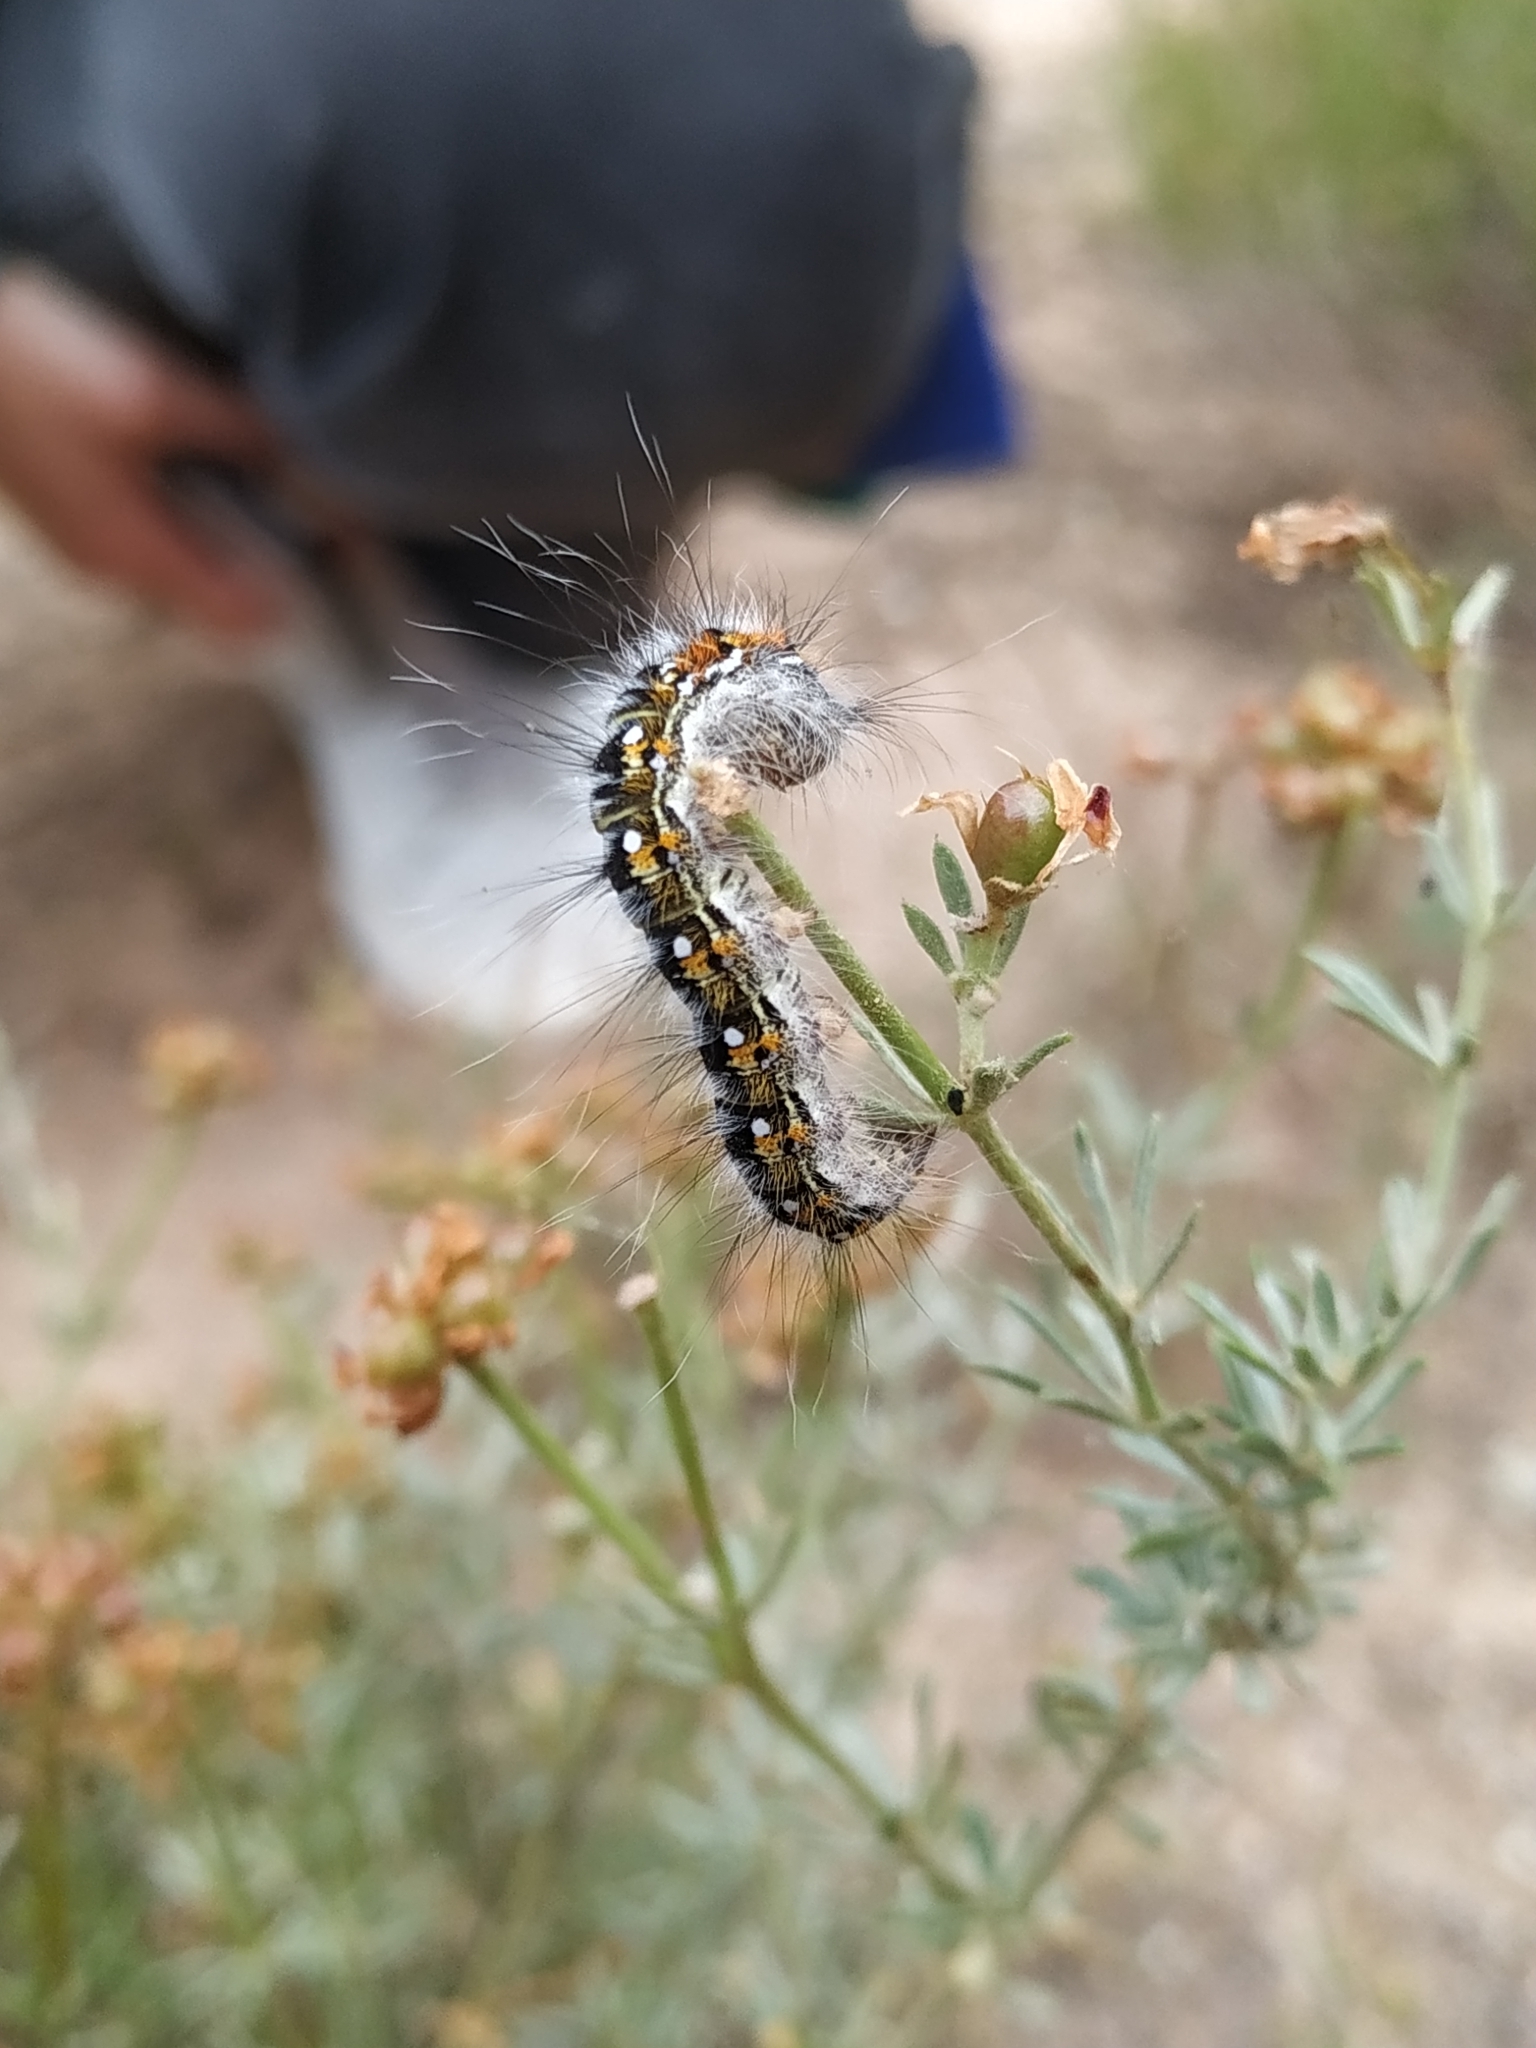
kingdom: Animalia
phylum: Arthropoda
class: Insecta
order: Lepidoptera
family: Lasiocampidae
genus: Psilogaster
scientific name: Psilogaster loti
